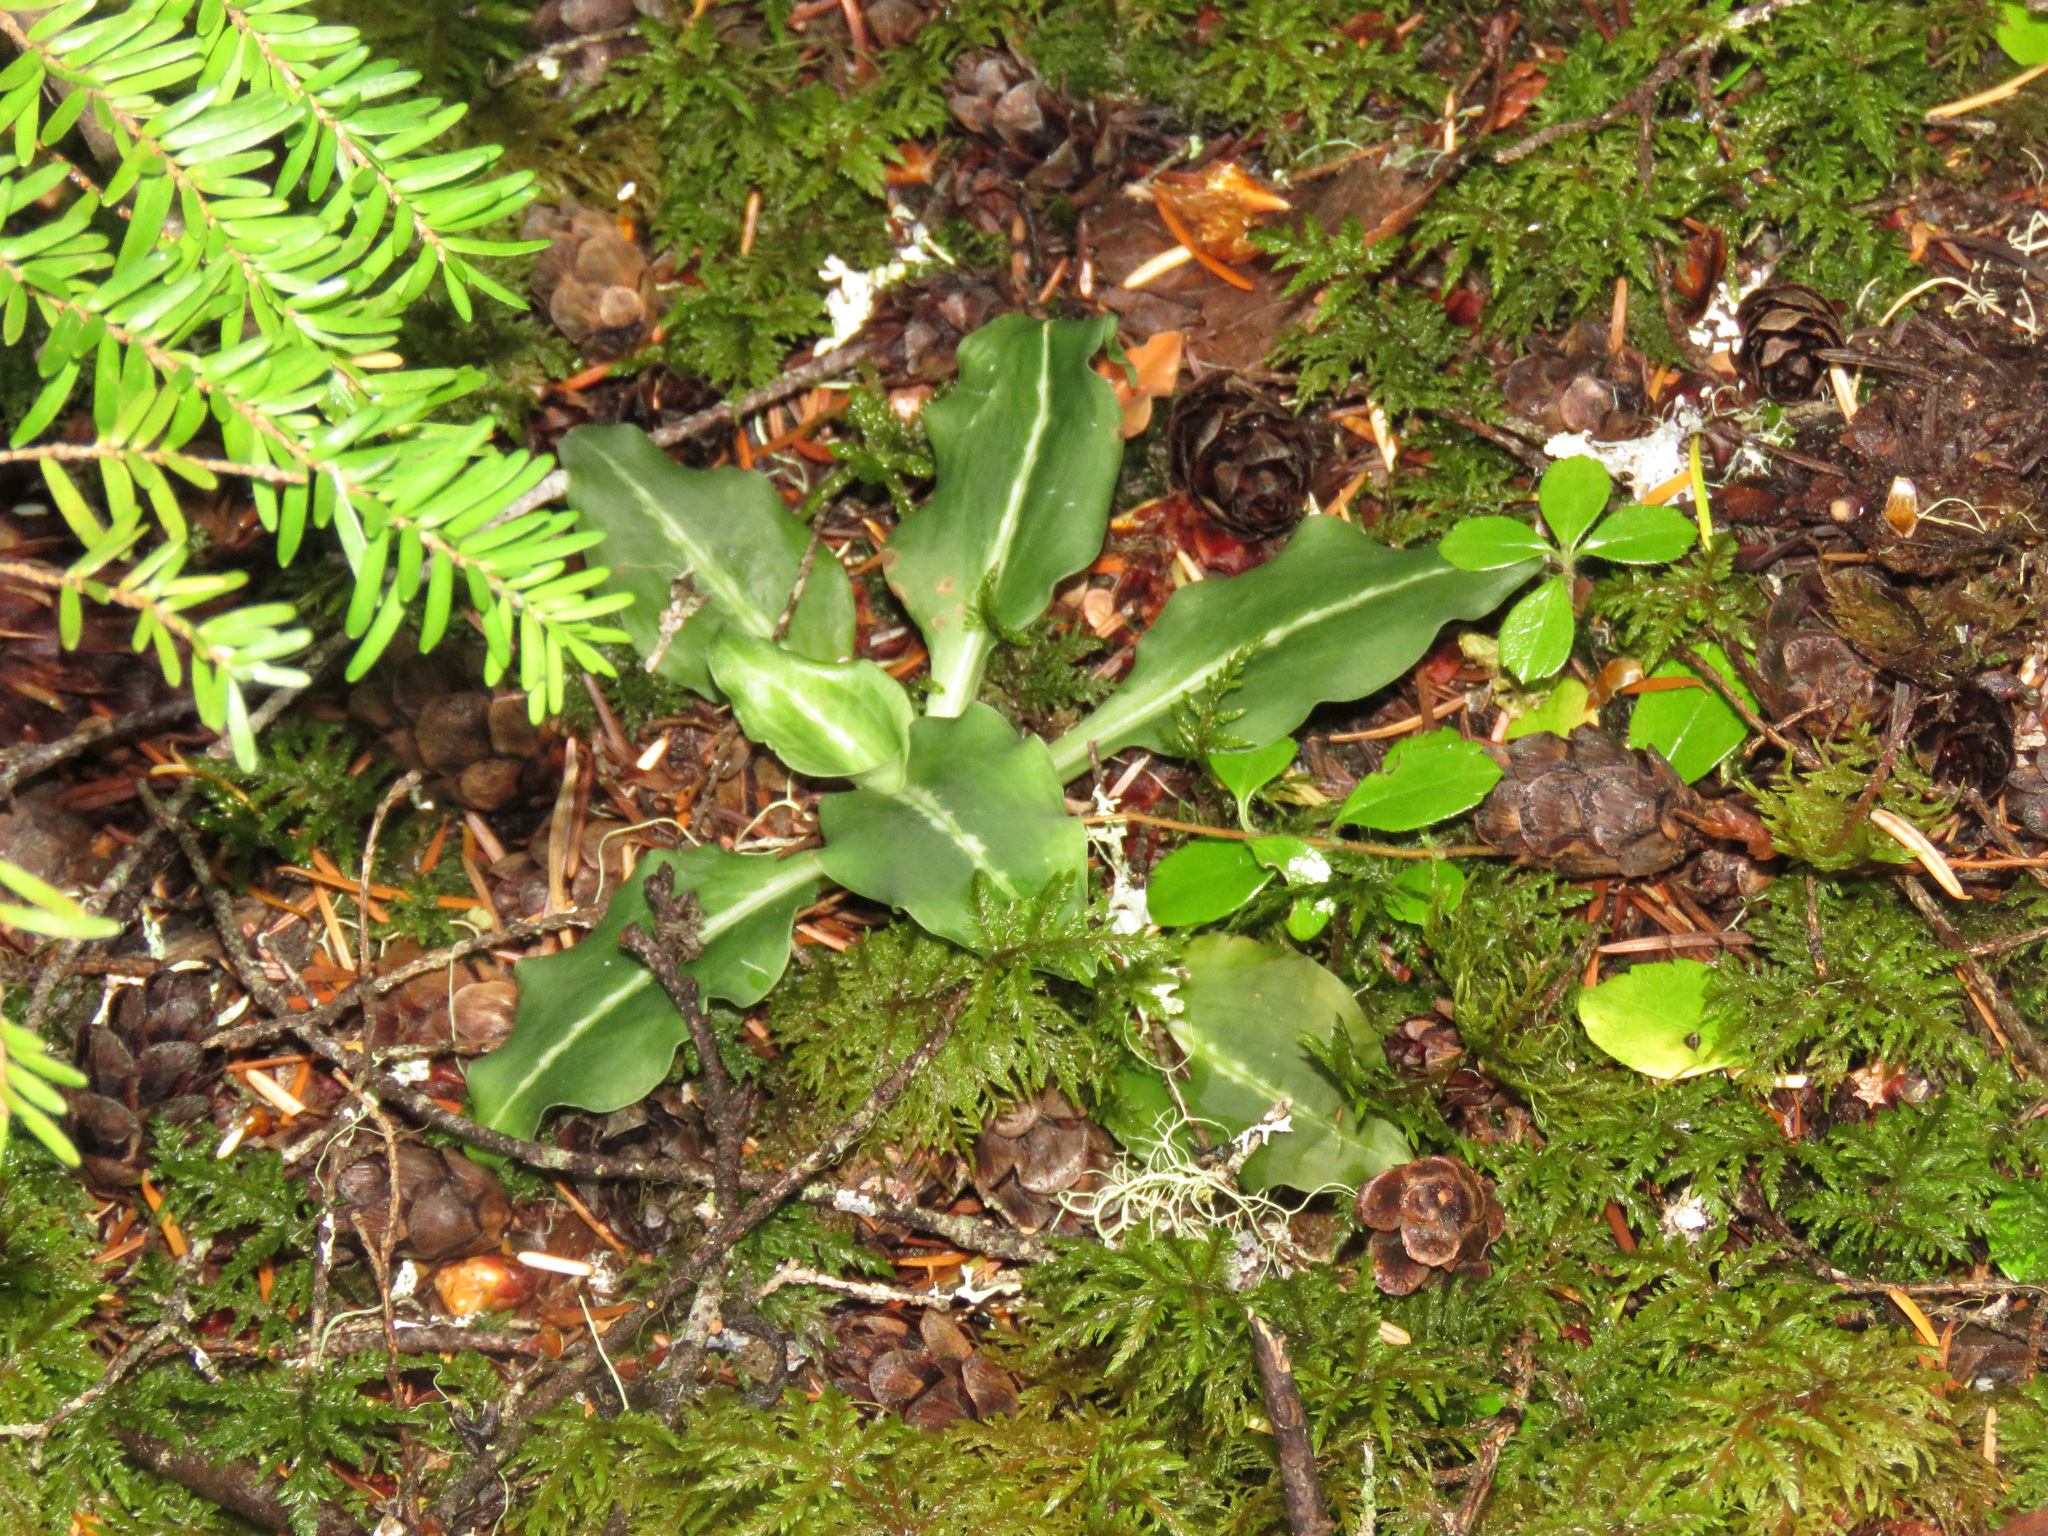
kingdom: Plantae
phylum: Tracheophyta
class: Liliopsida
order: Asparagales
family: Orchidaceae
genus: Goodyera
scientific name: Goodyera oblongifolia
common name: Giant rattlesnake-plantain
